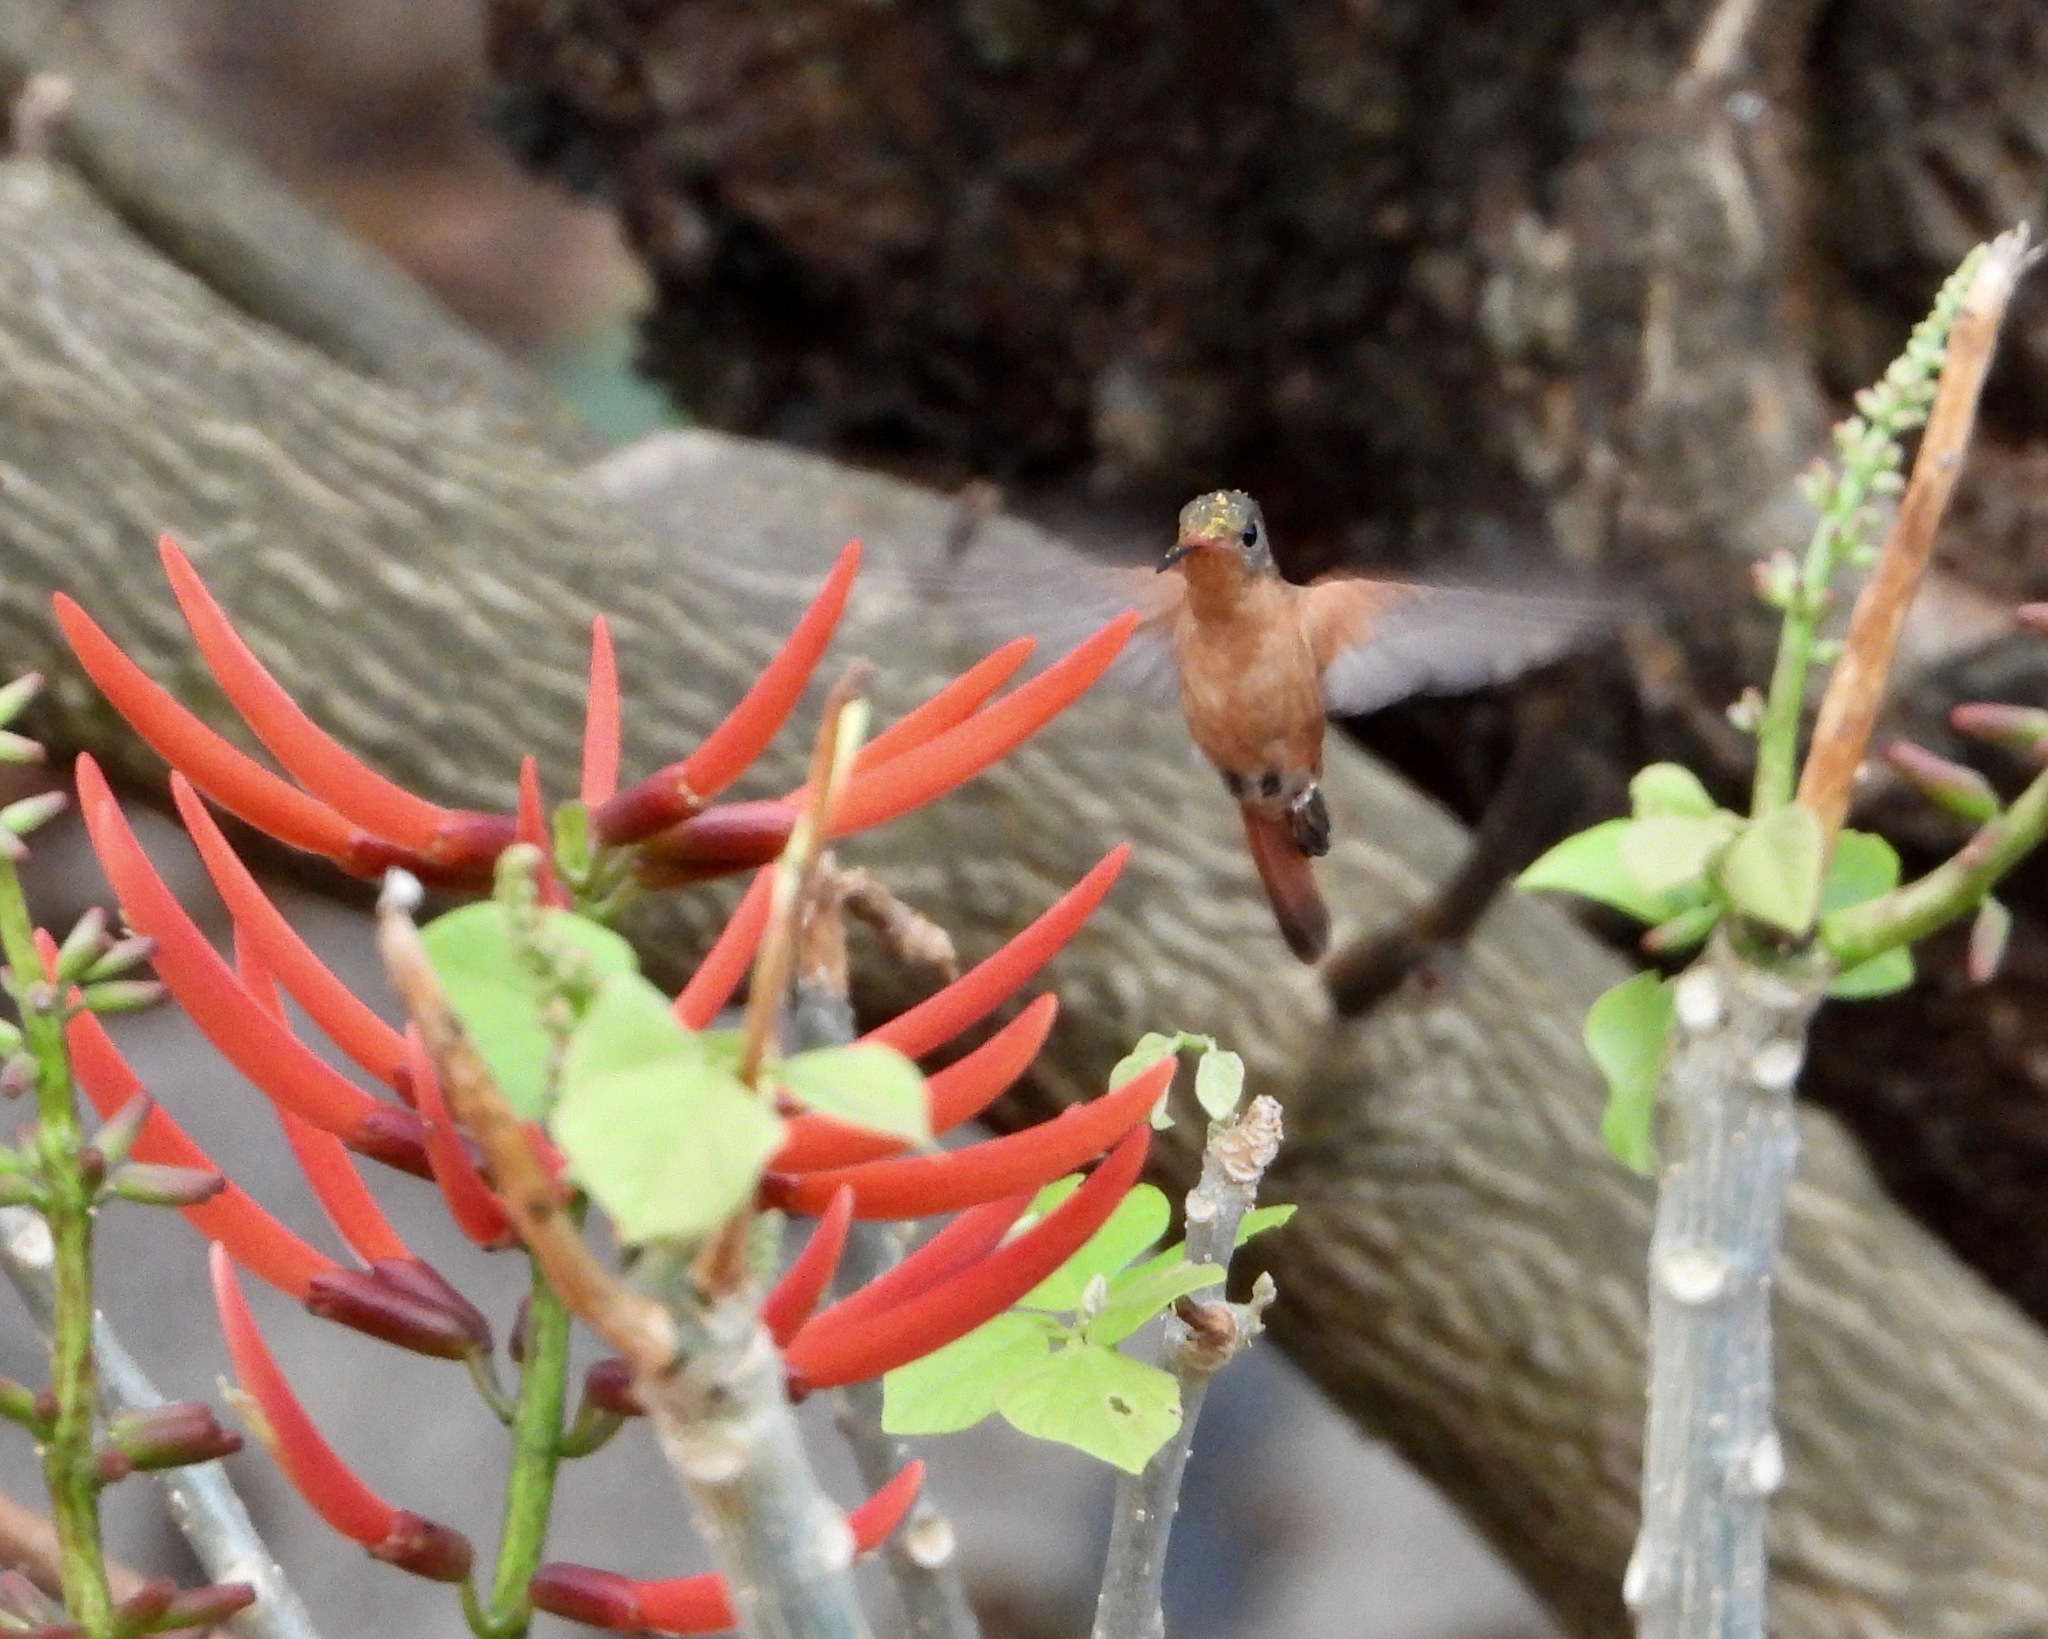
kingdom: Animalia
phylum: Chordata
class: Aves
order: Apodiformes
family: Trochilidae
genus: Amazilia
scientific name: Amazilia rutila
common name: Cinnamon hummingbird
